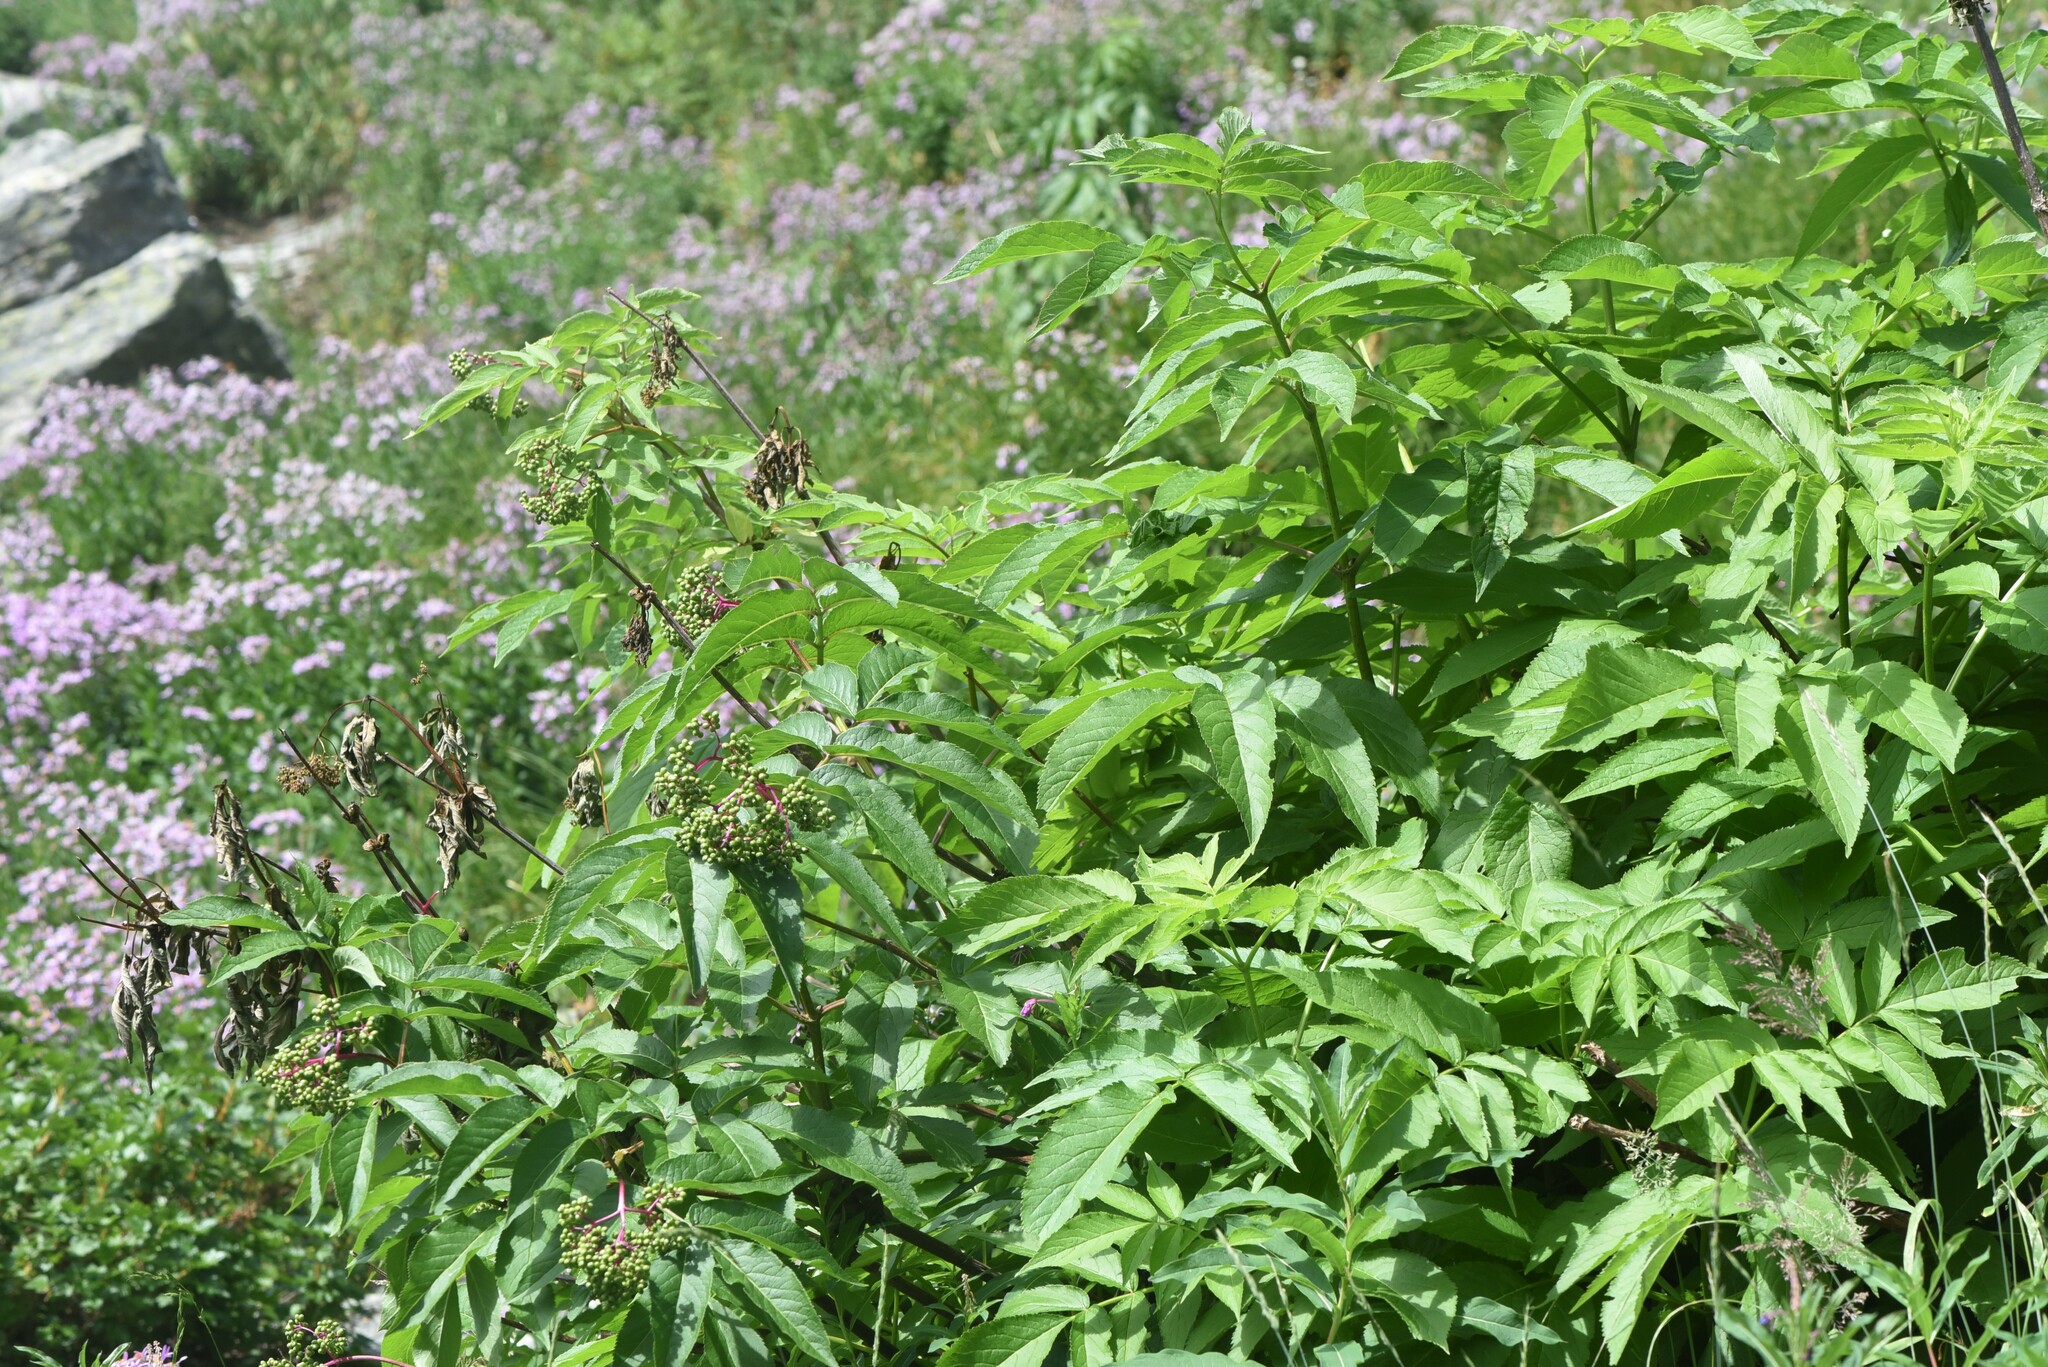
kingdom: Plantae
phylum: Tracheophyta
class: Magnoliopsida
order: Dipsacales
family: Viburnaceae
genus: Sambucus
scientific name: Sambucus racemosa
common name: Red-berried elder
